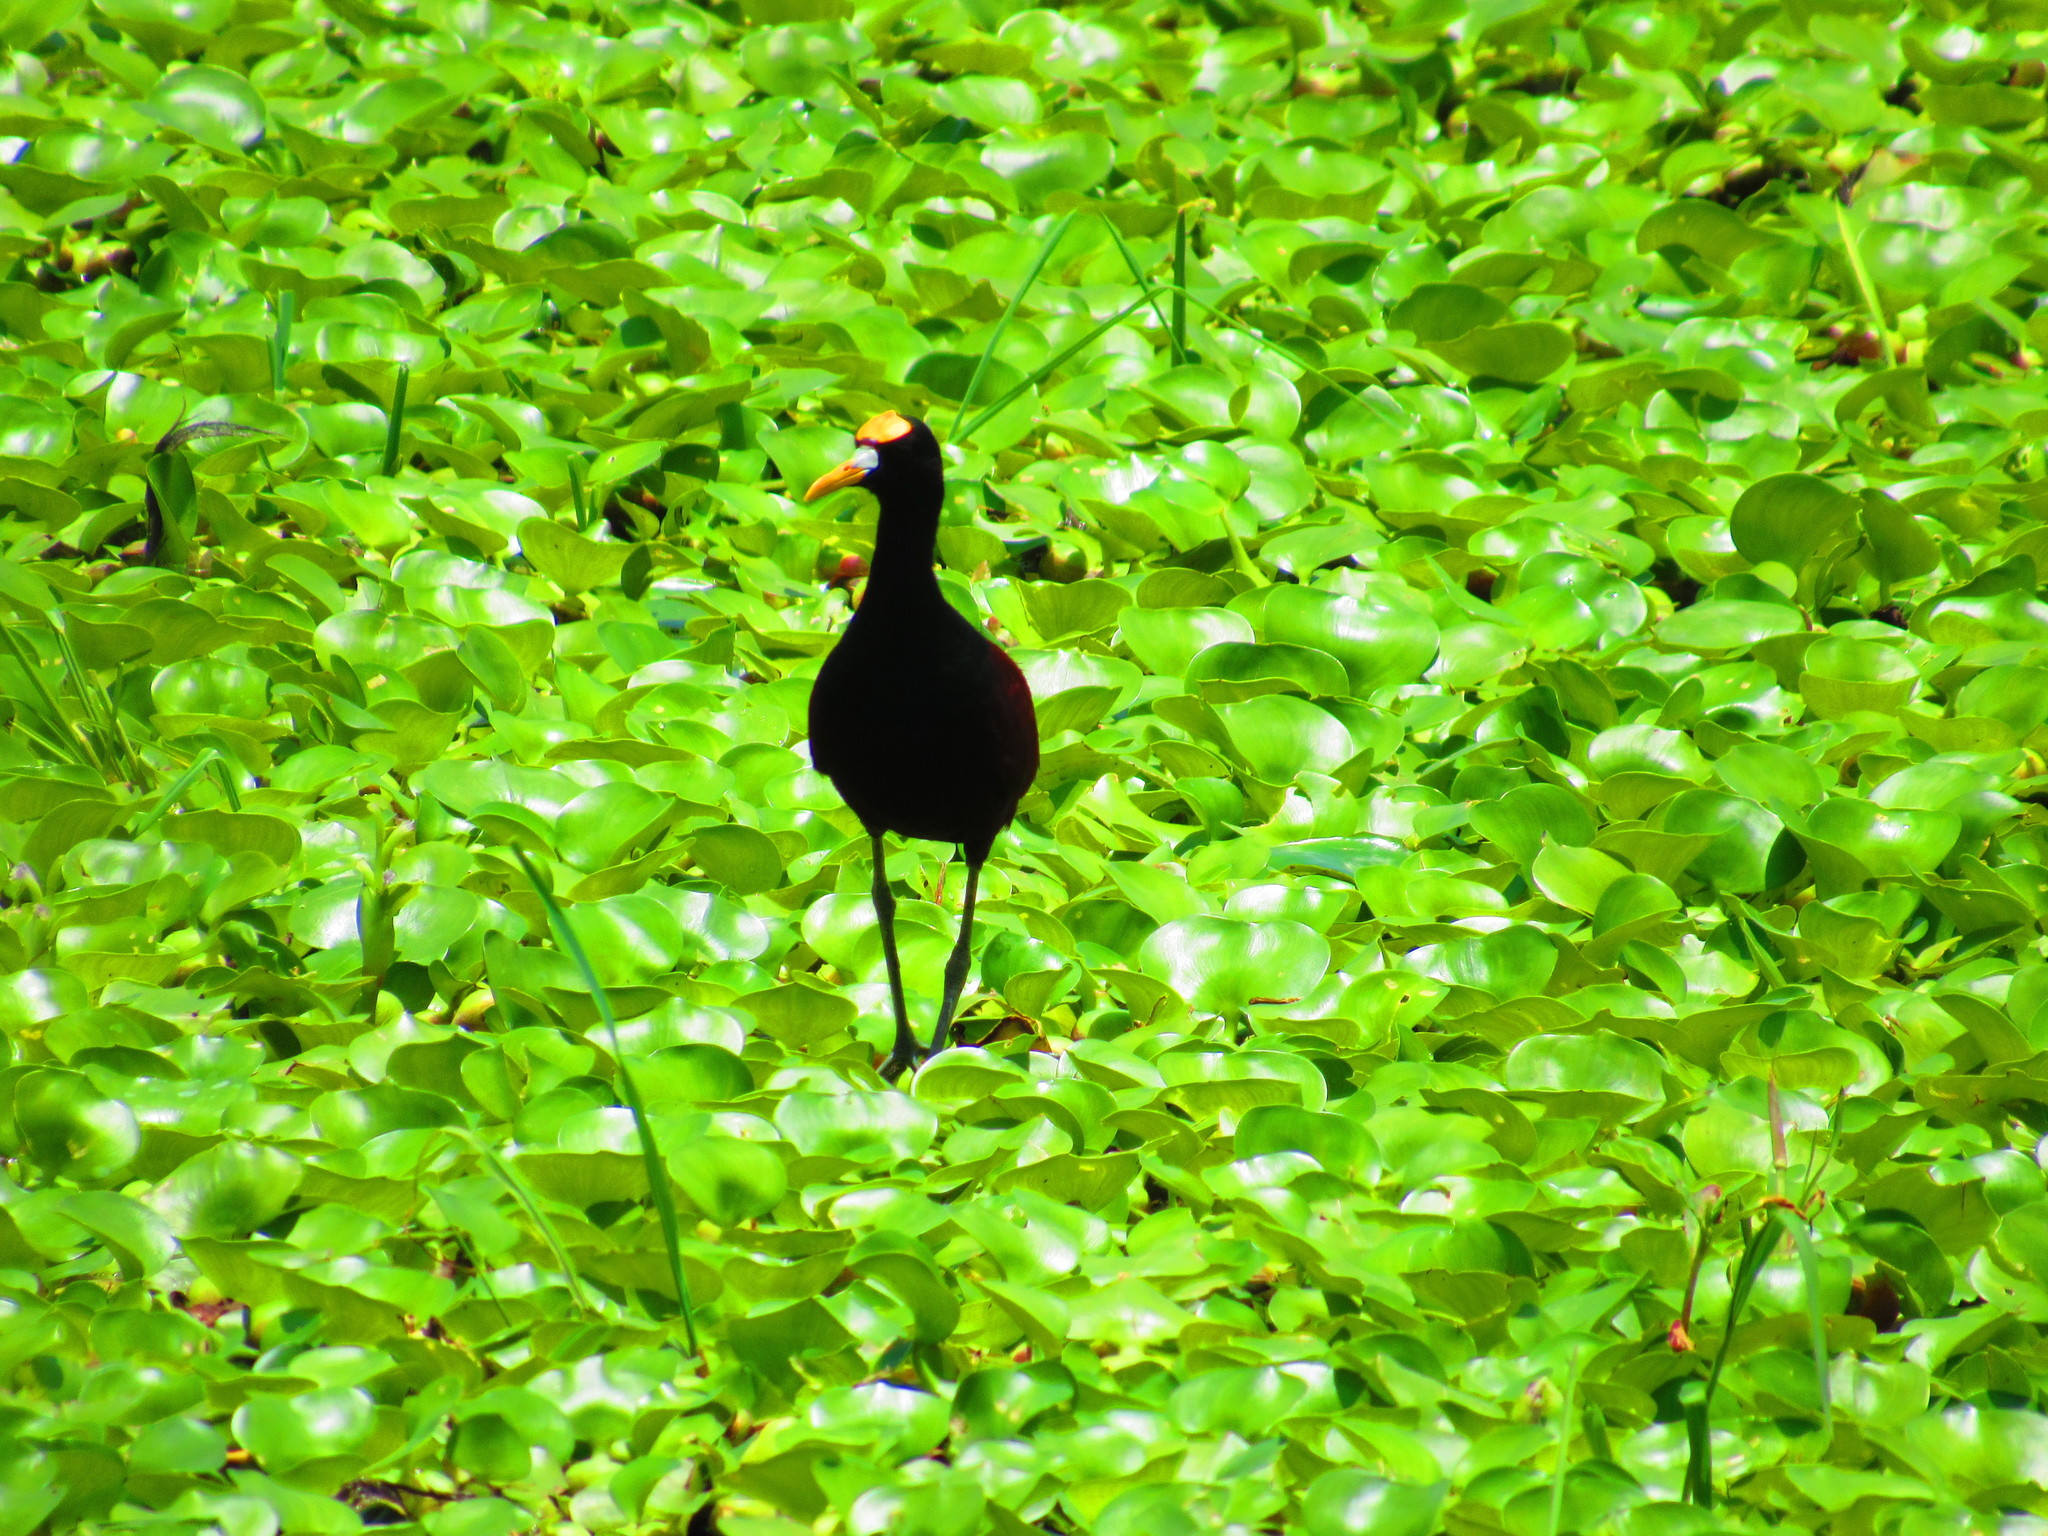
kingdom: Animalia
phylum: Chordata
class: Aves
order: Charadriiformes
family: Jacanidae
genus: Jacana
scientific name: Jacana spinosa
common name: Northern jacana
